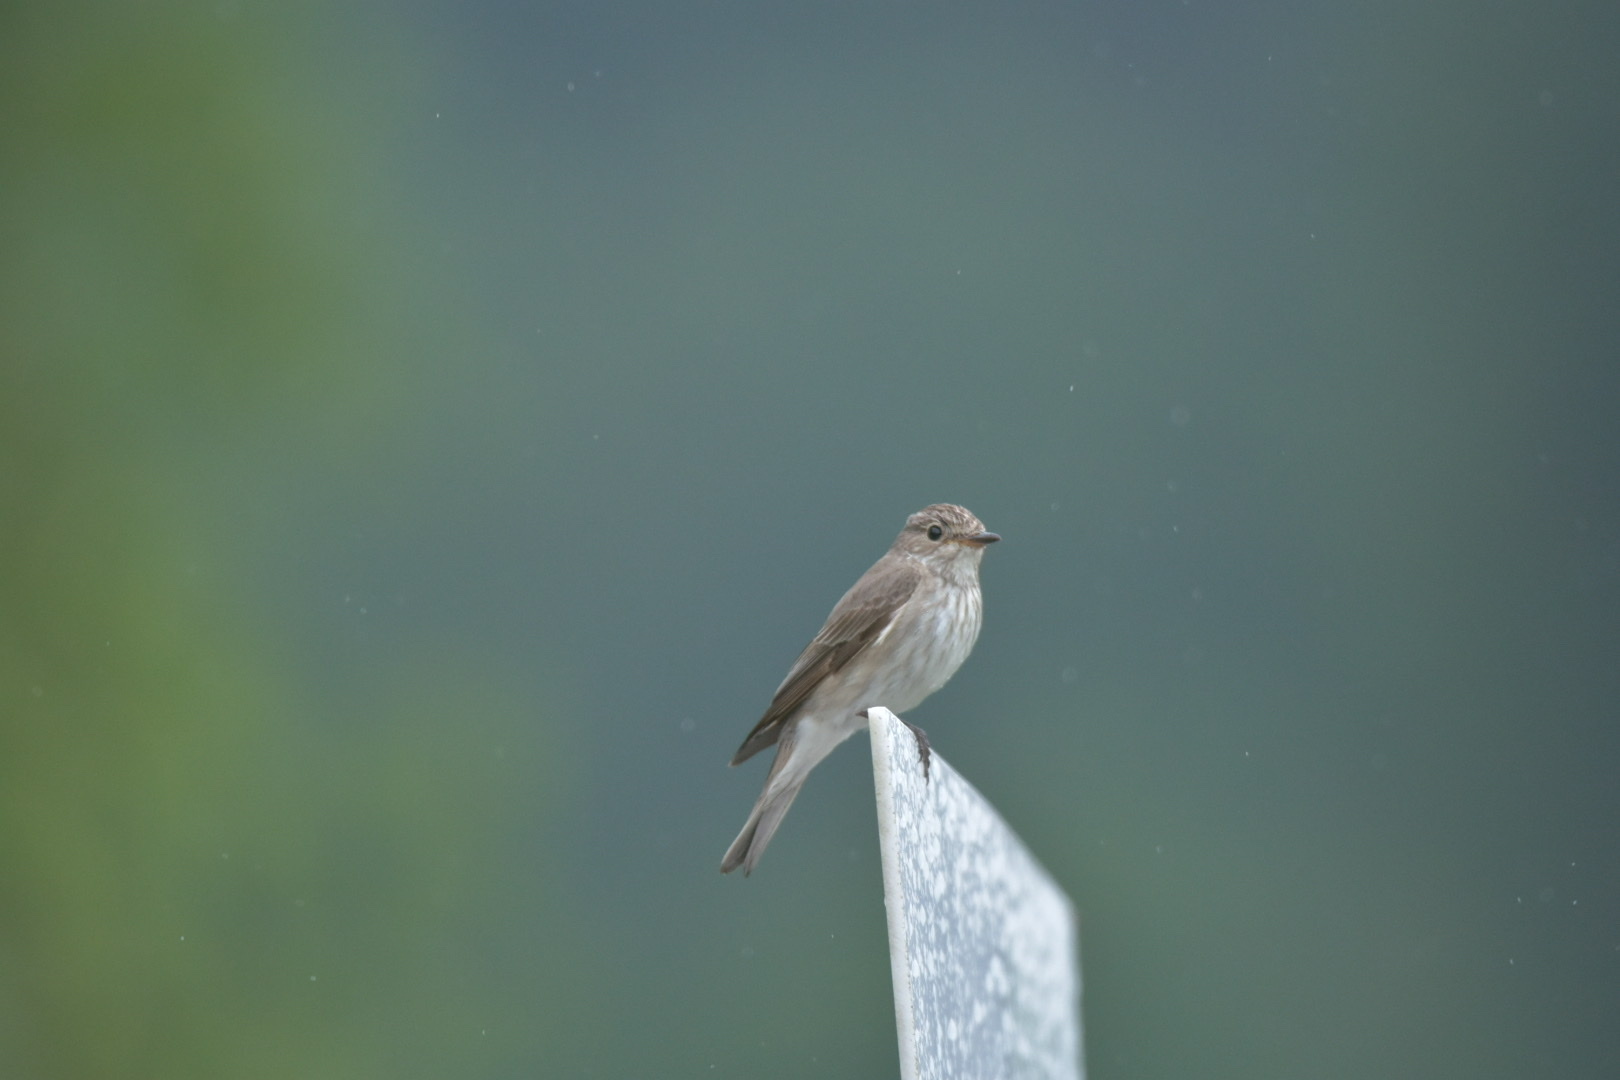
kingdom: Animalia
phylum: Chordata
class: Aves
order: Passeriformes
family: Muscicapidae
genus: Muscicapa
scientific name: Muscicapa striata
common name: Spotted flycatcher
